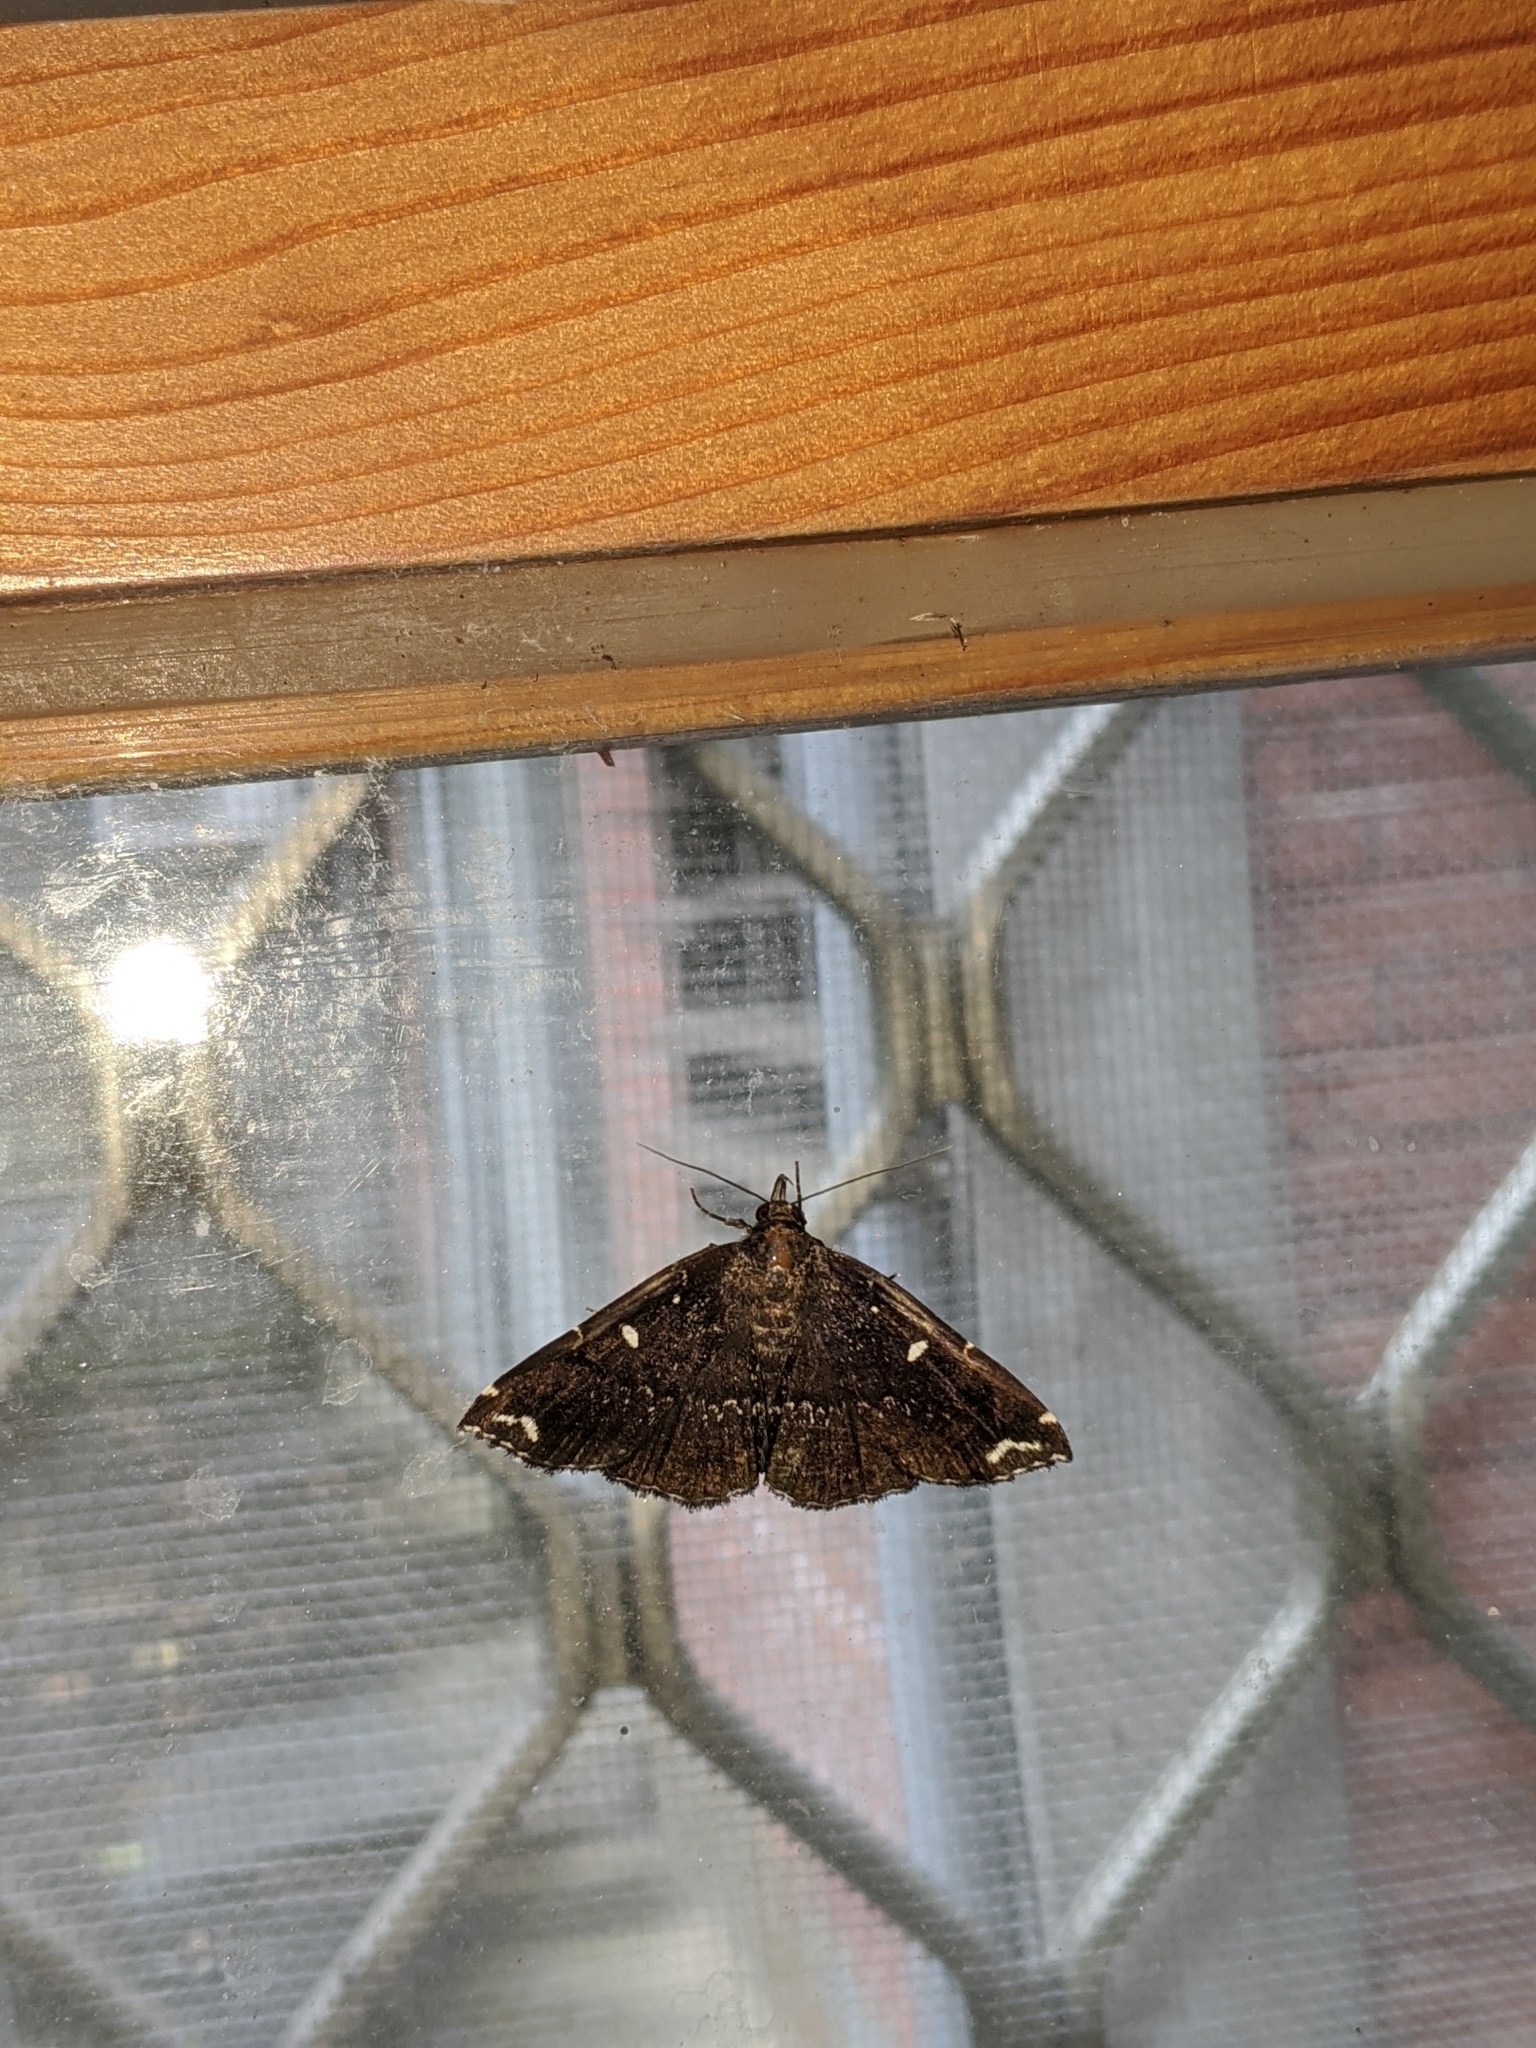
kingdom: Animalia
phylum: Arthropoda
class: Insecta
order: Lepidoptera
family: Erebidae
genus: Adrapsa
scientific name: Adrapsa simplex
